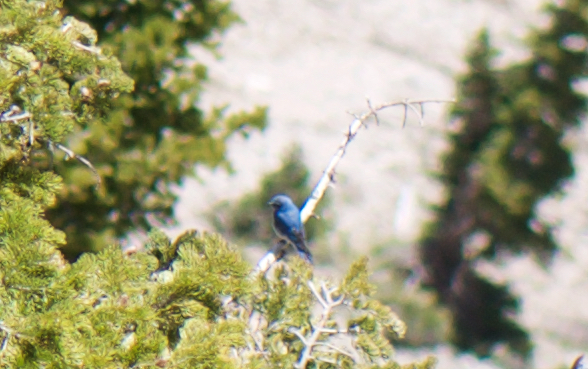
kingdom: Animalia
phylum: Chordata
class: Aves
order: Passeriformes
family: Turdidae
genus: Sialia
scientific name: Sialia currucoides
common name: Mountain bluebird
